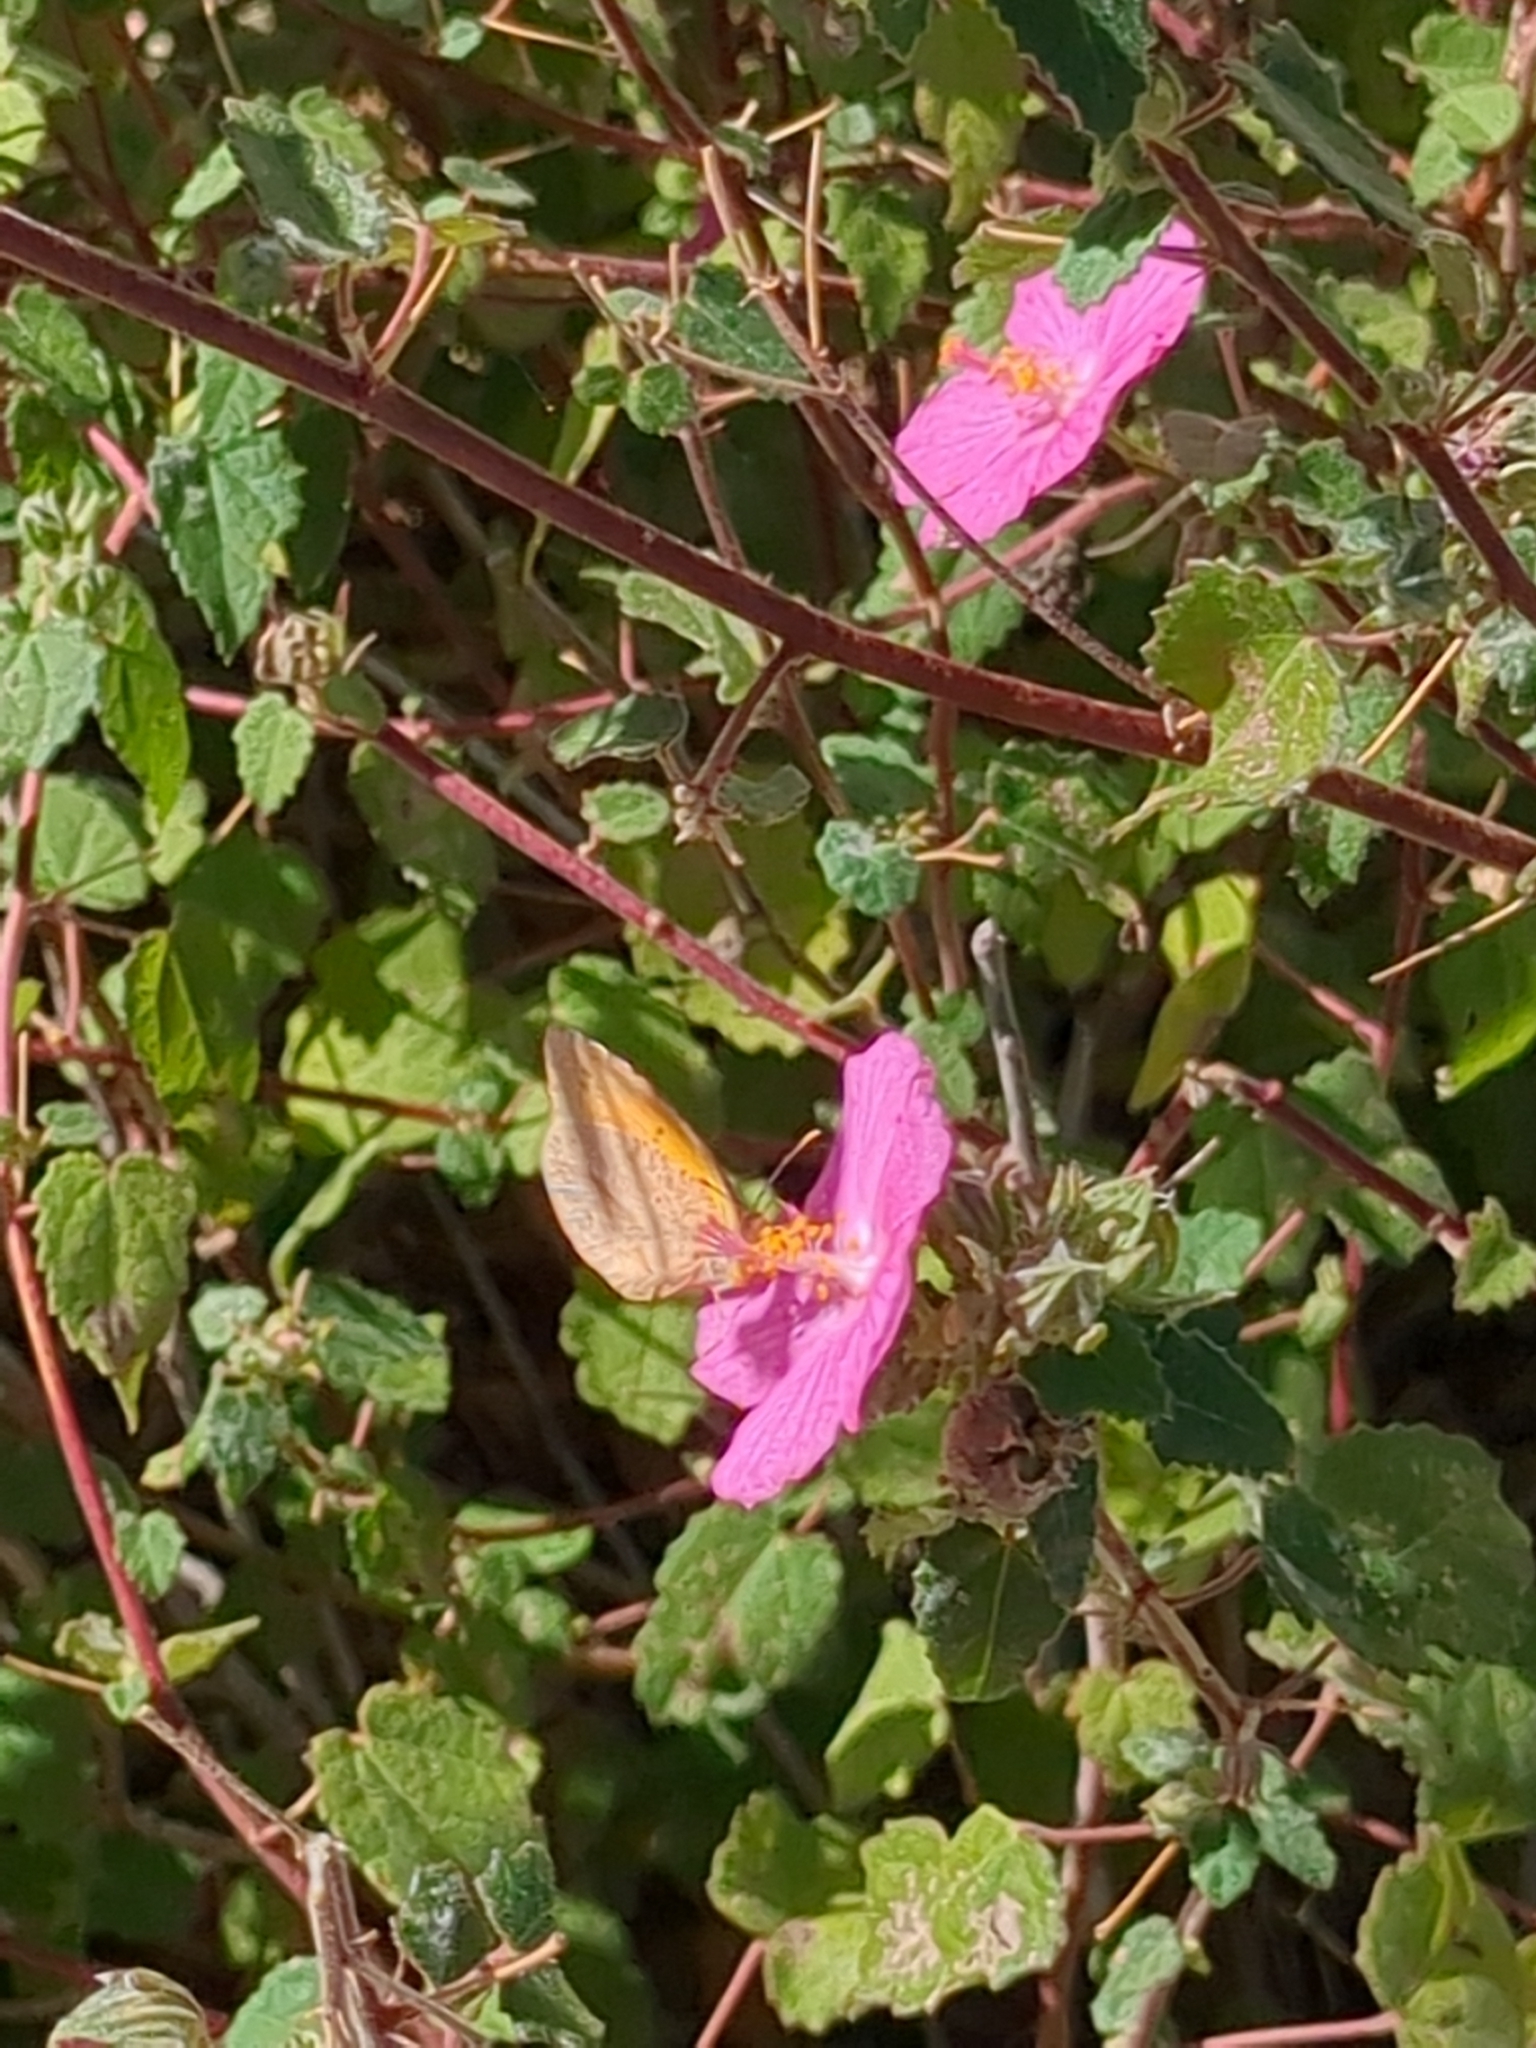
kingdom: Animalia
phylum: Arthropoda
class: Insecta
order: Lepidoptera
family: Pieridae
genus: Abaeis
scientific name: Abaeis nicippe
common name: Sleepy orange
